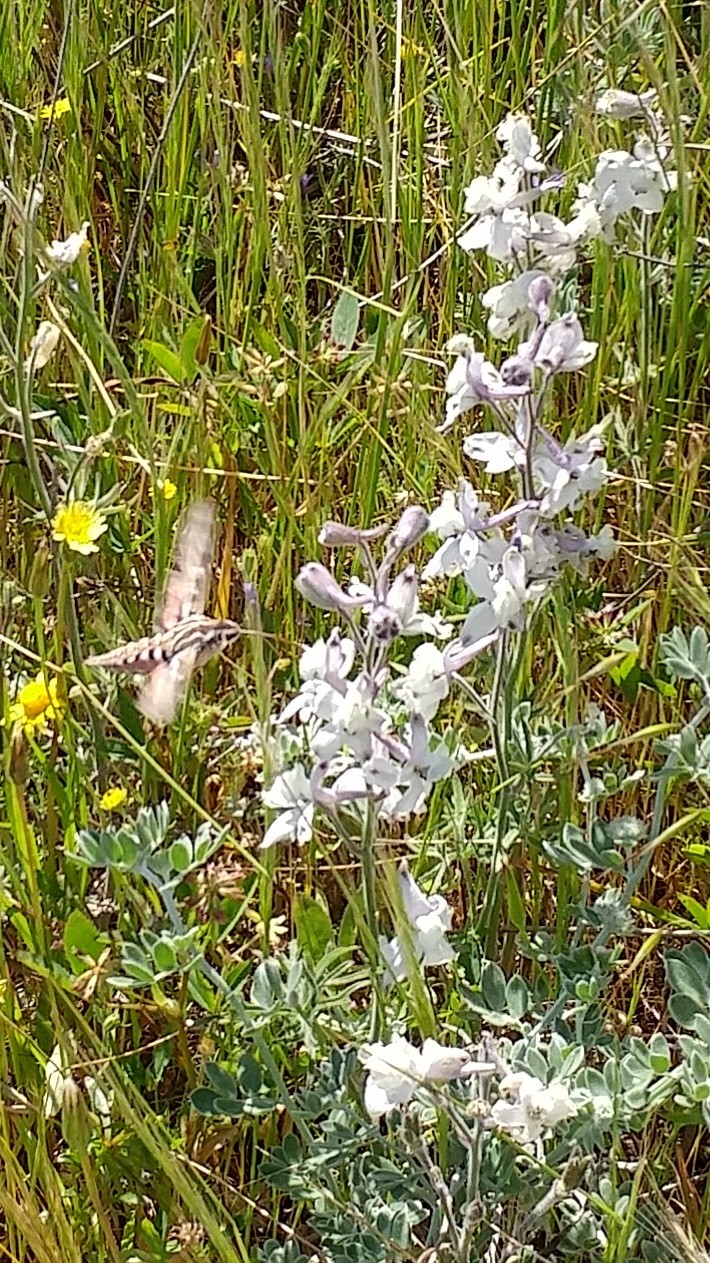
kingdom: Animalia
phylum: Arthropoda
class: Insecta
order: Lepidoptera
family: Sphingidae
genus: Hyles
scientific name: Hyles lineata
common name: White-lined sphinx
